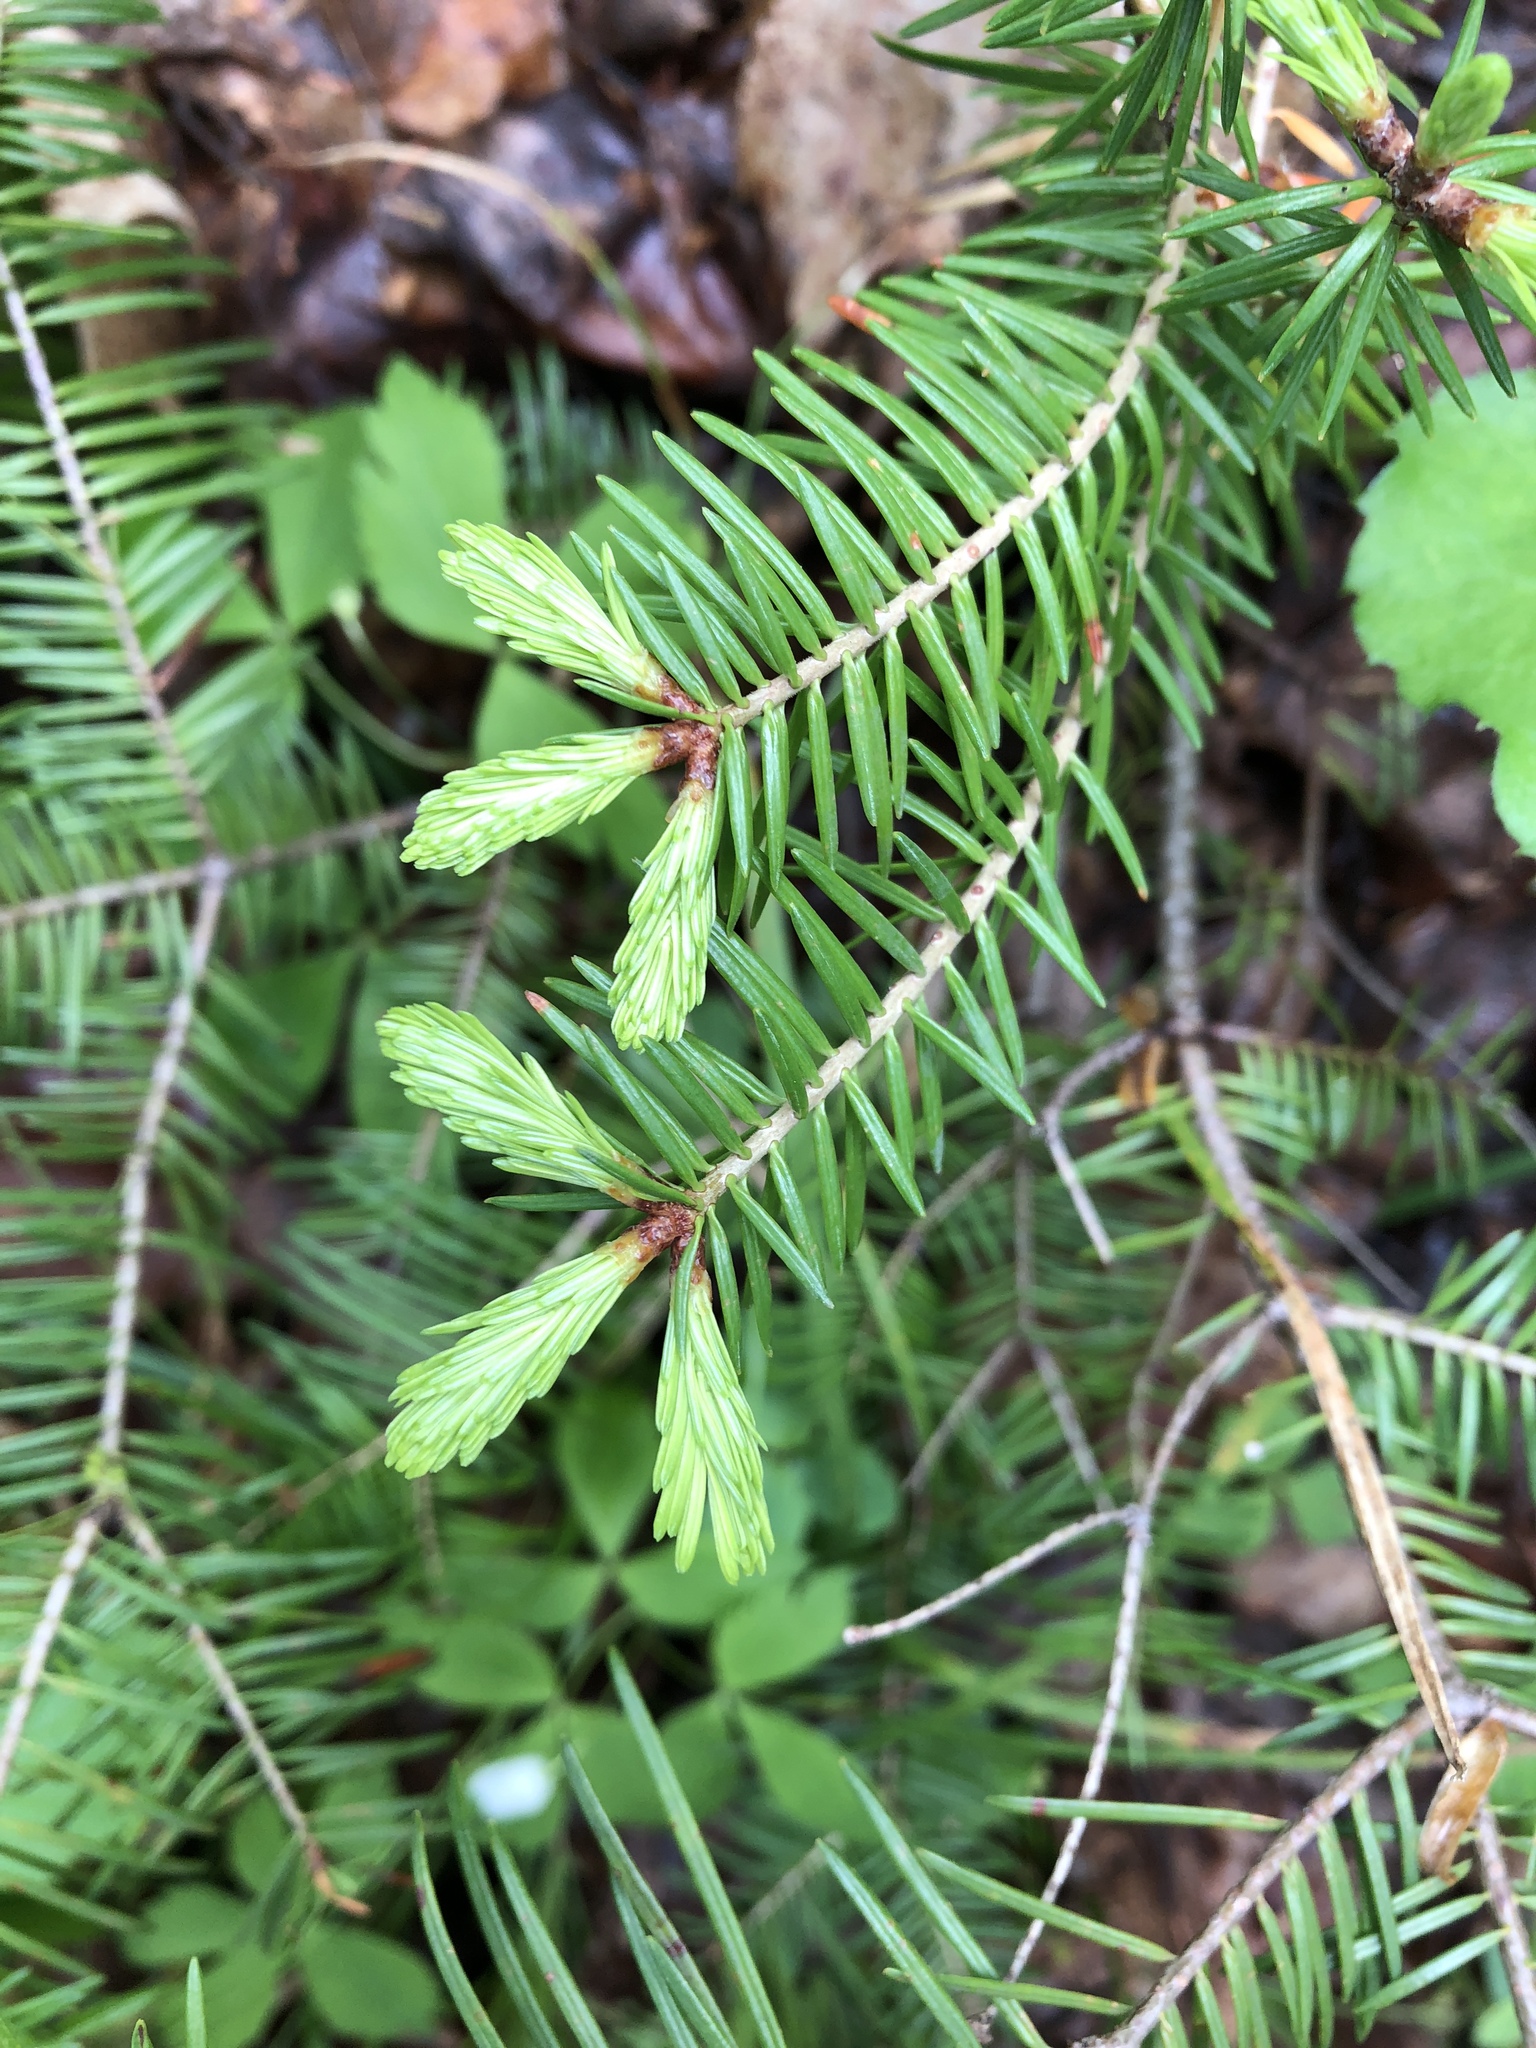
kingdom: Plantae
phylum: Tracheophyta
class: Pinopsida
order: Pinales
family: Pinaceae
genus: Abies
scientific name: Abies balsamea
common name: Balsam fir
